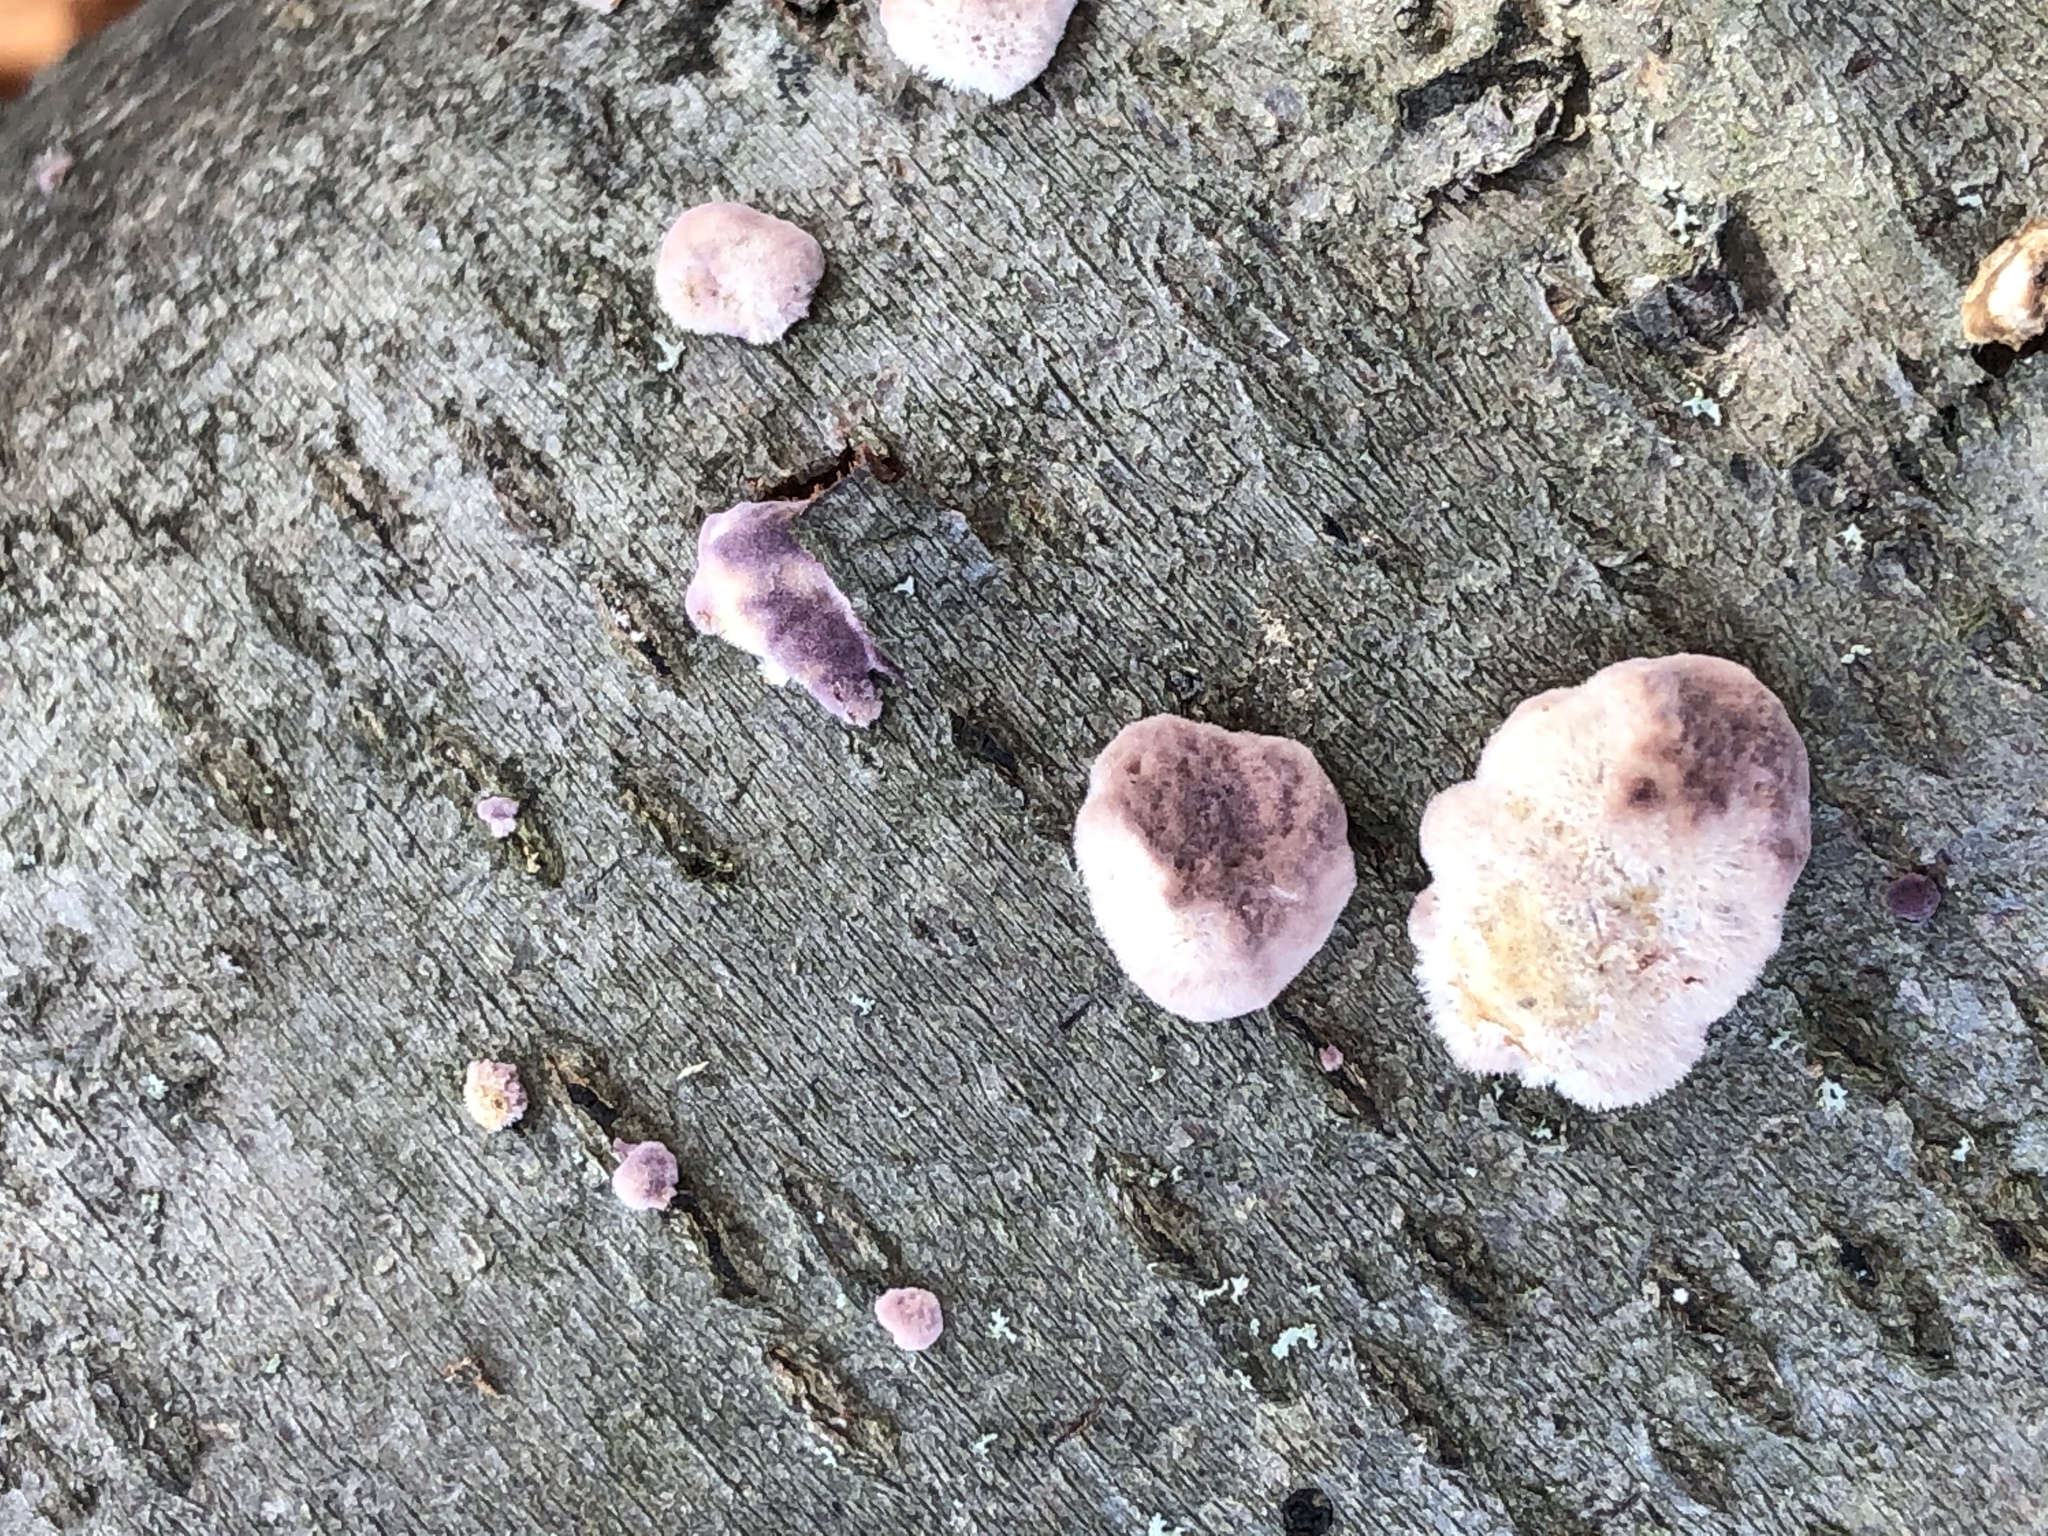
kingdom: Fungi
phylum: Basidiomycota
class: Agaricomycetes
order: Hymenochaetales
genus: Trichaptum
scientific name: Trichaptum abietinum
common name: Purplepore bracket
